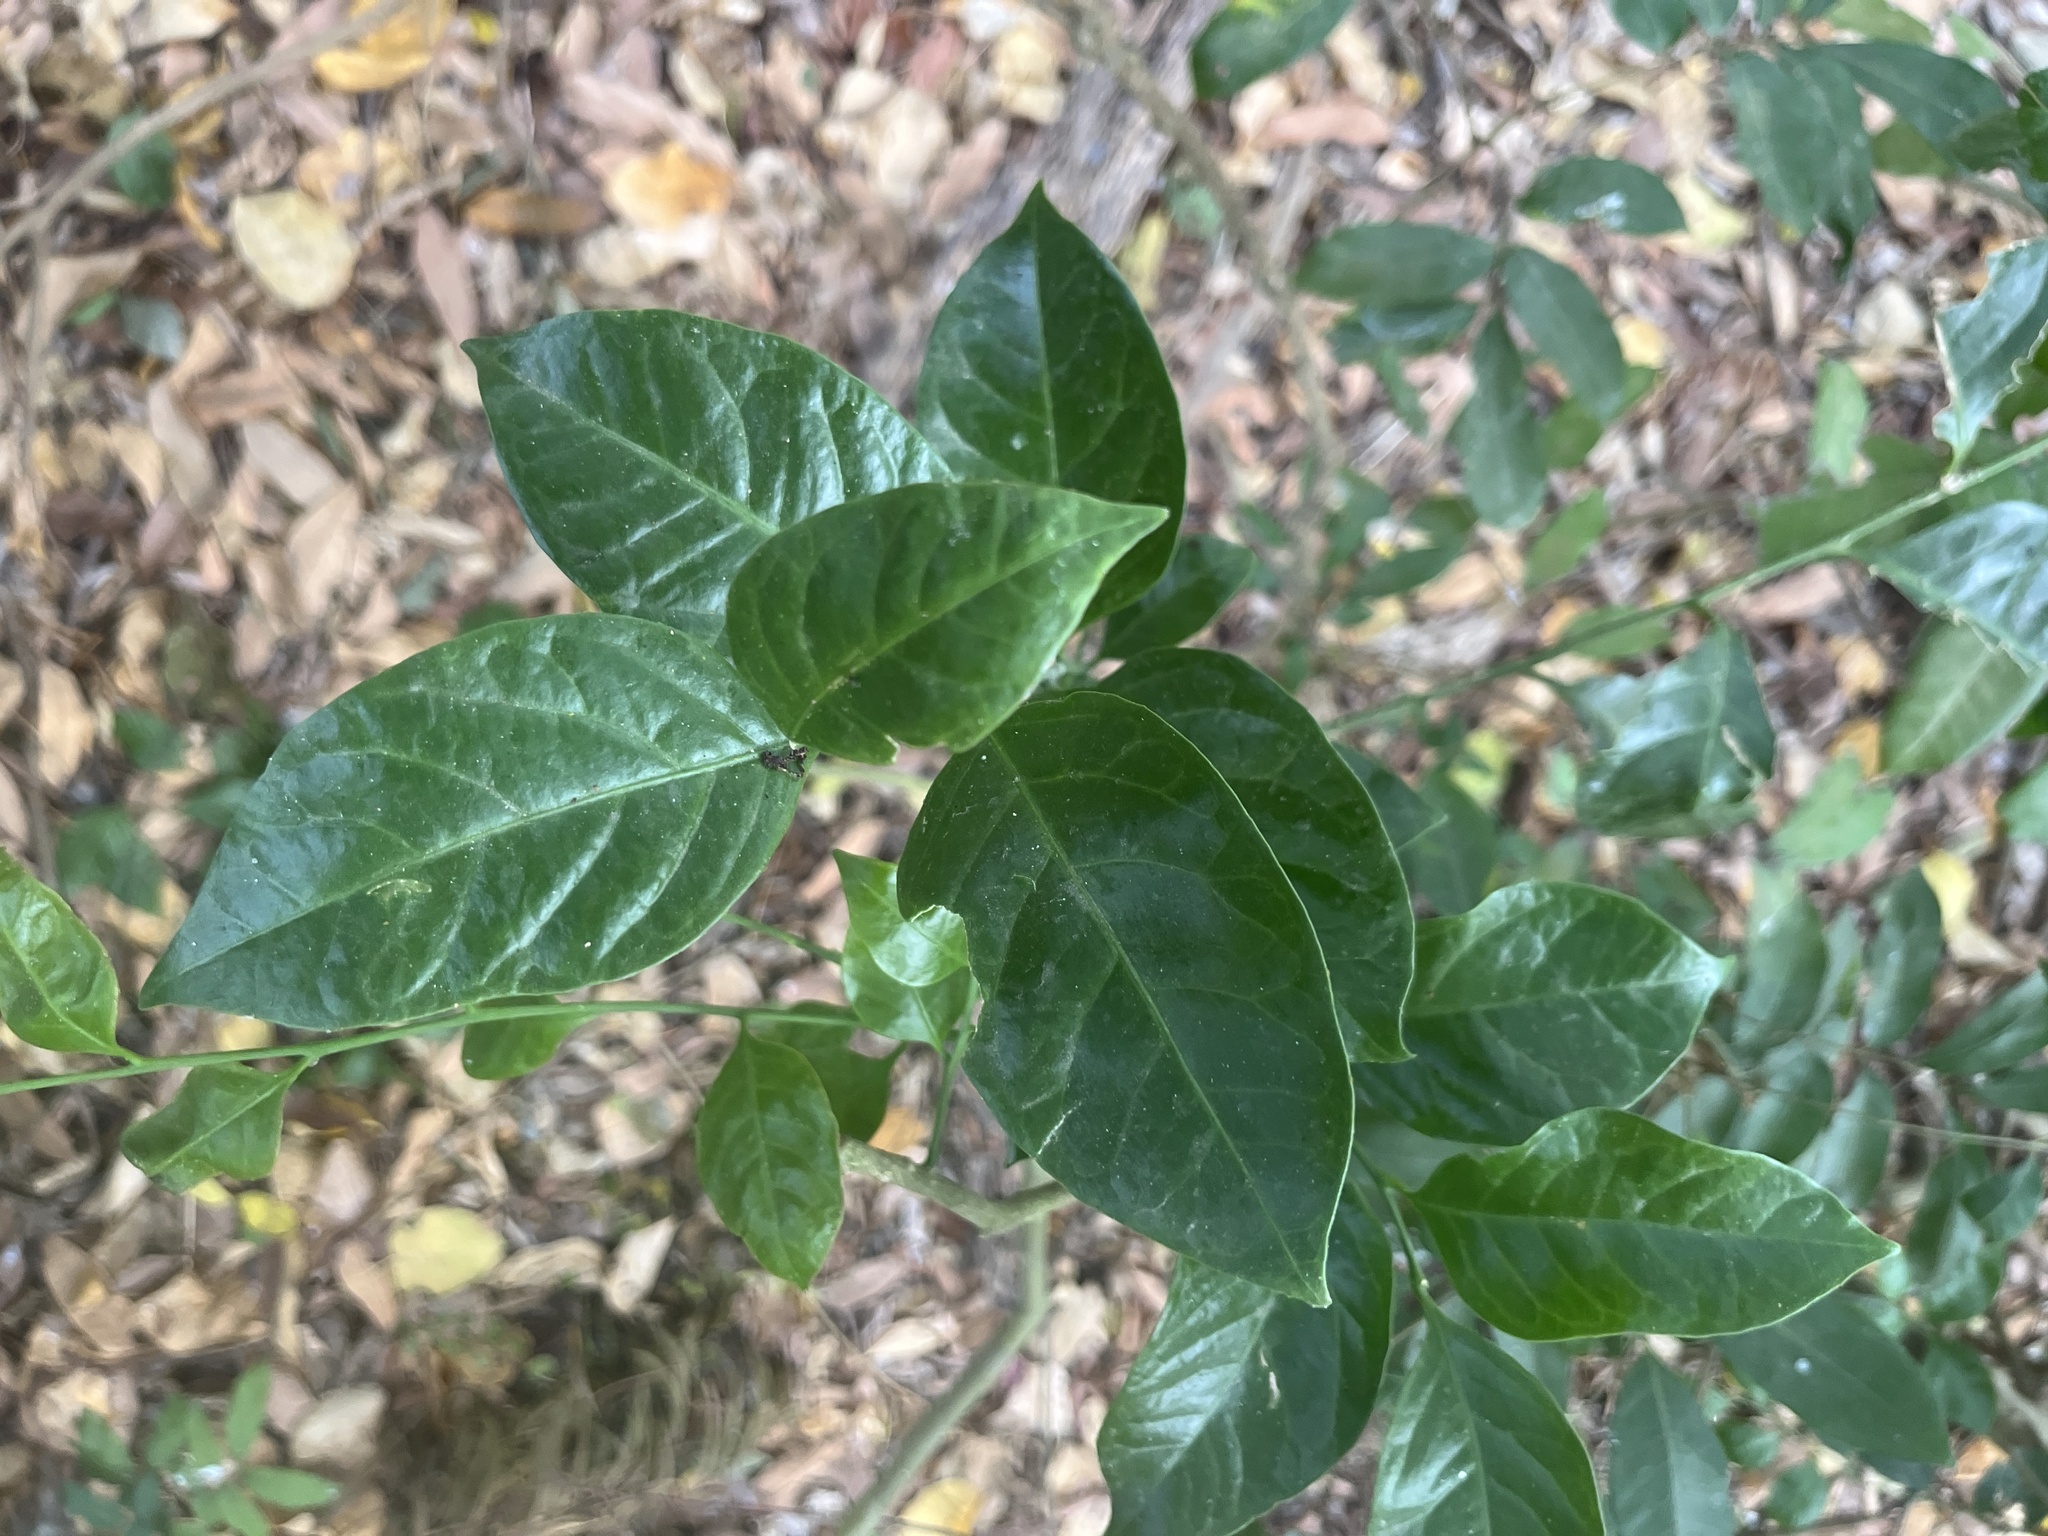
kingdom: Plantae
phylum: Tracheophyta
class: Magnoliopsida
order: Santalales
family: Opiliaceae
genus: Champereia
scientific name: Champereia manillana
